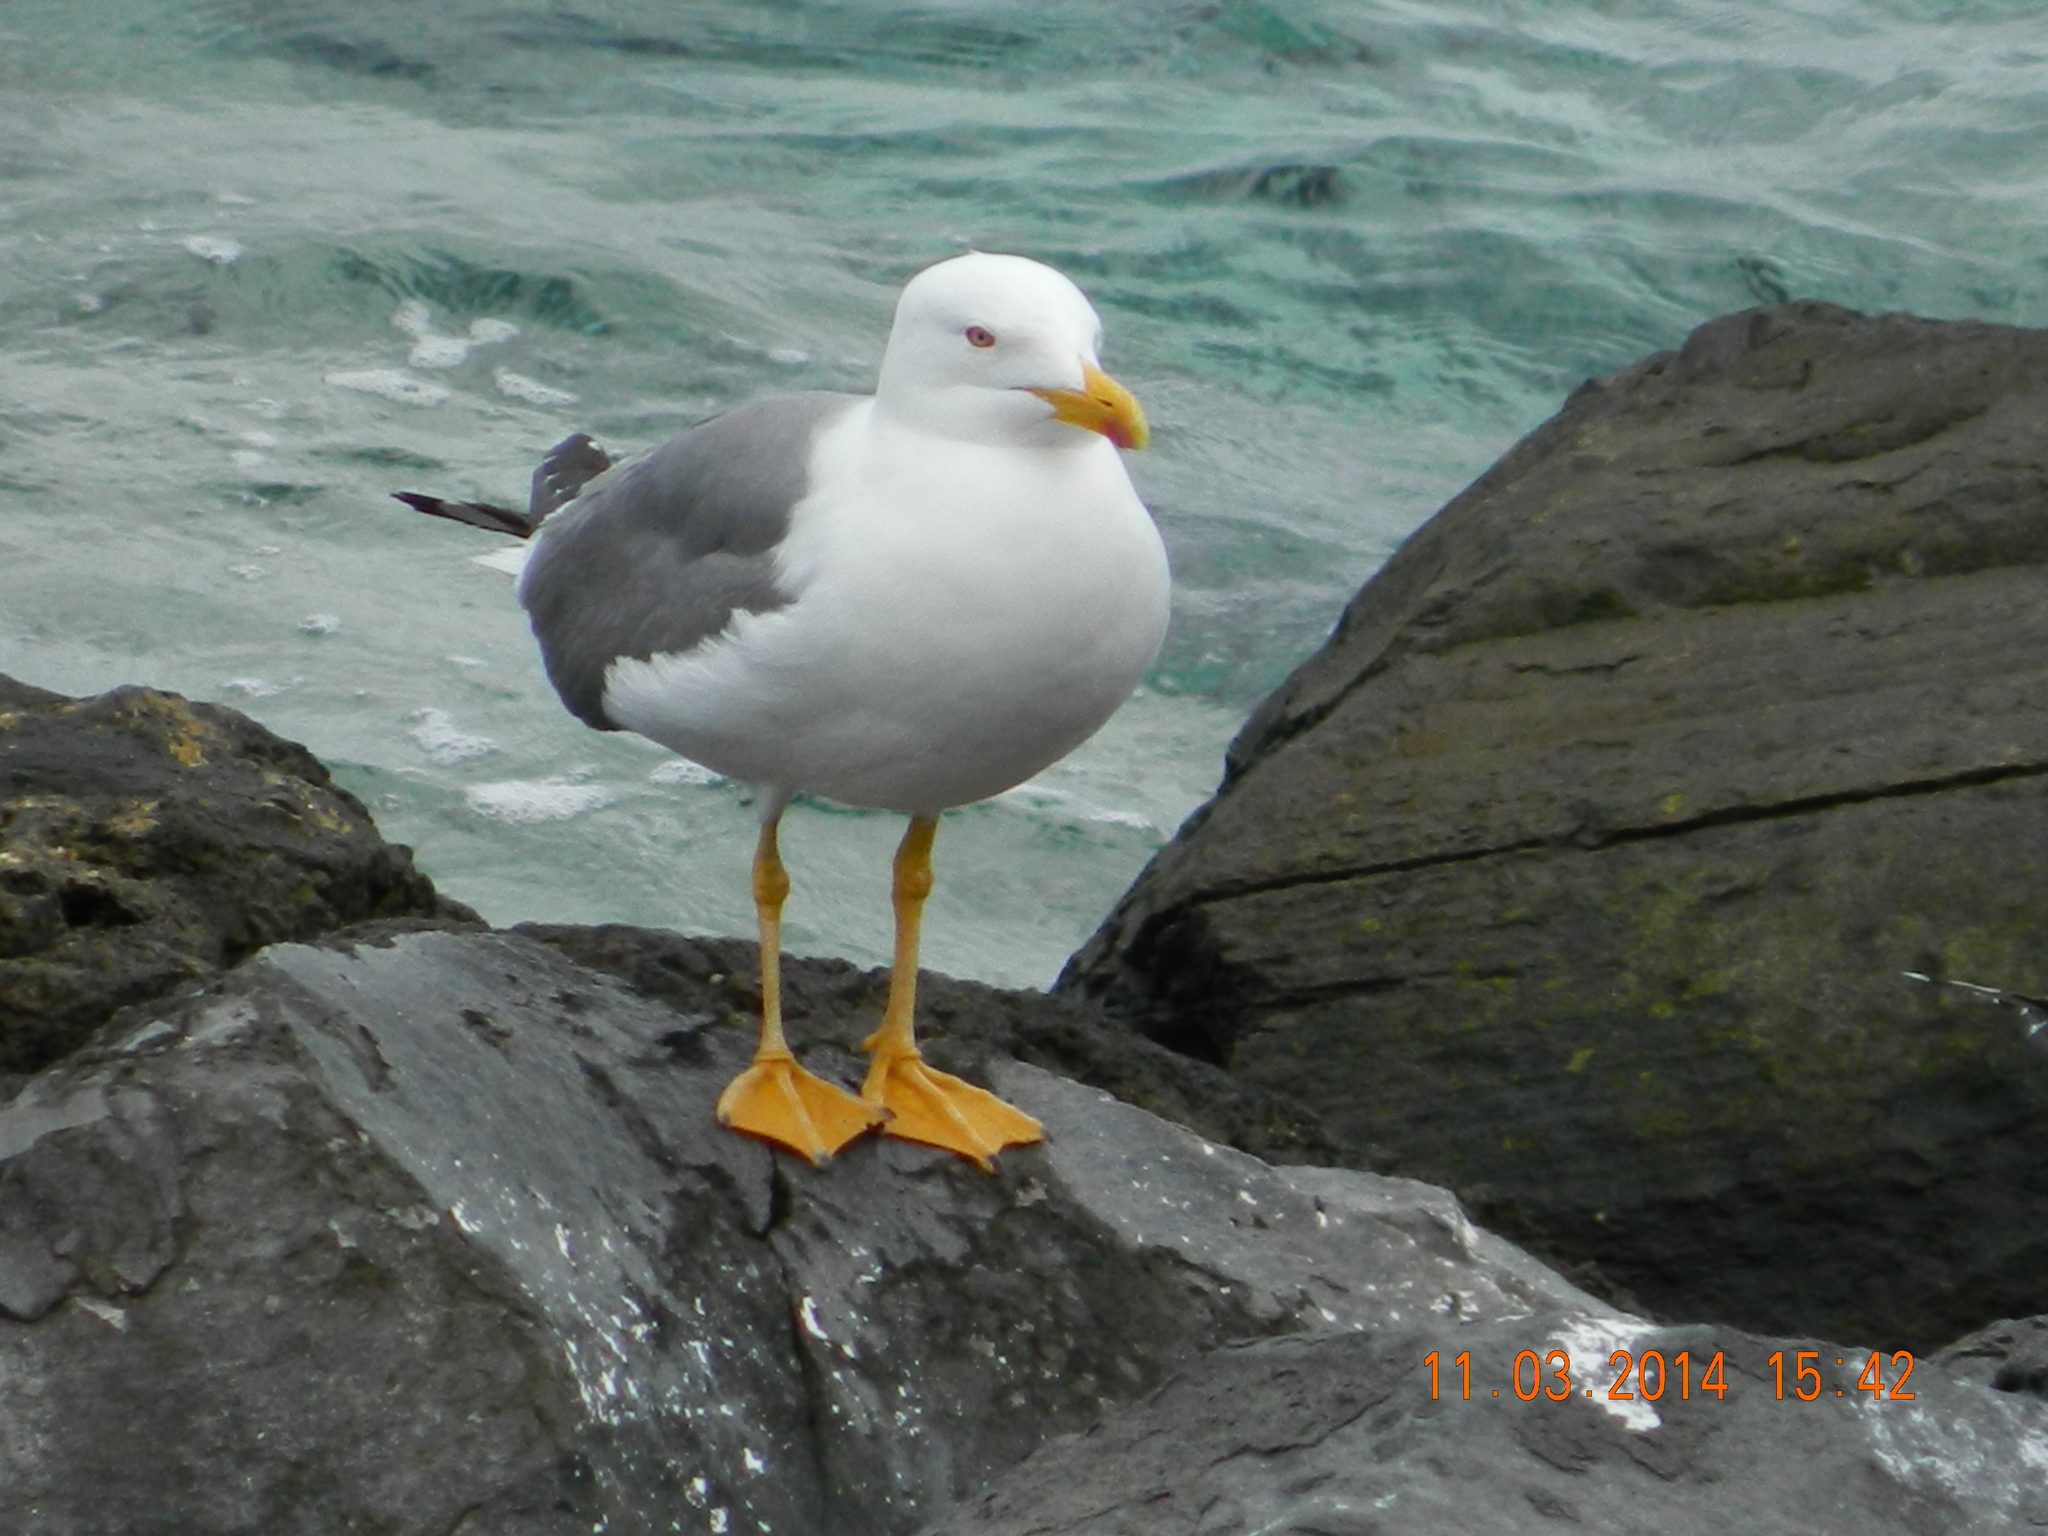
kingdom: Animalia
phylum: Chordata
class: Aves
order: Charadriiformes
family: Laridae
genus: Larus
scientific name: Larus michahellis
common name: Yellow-legged gull
